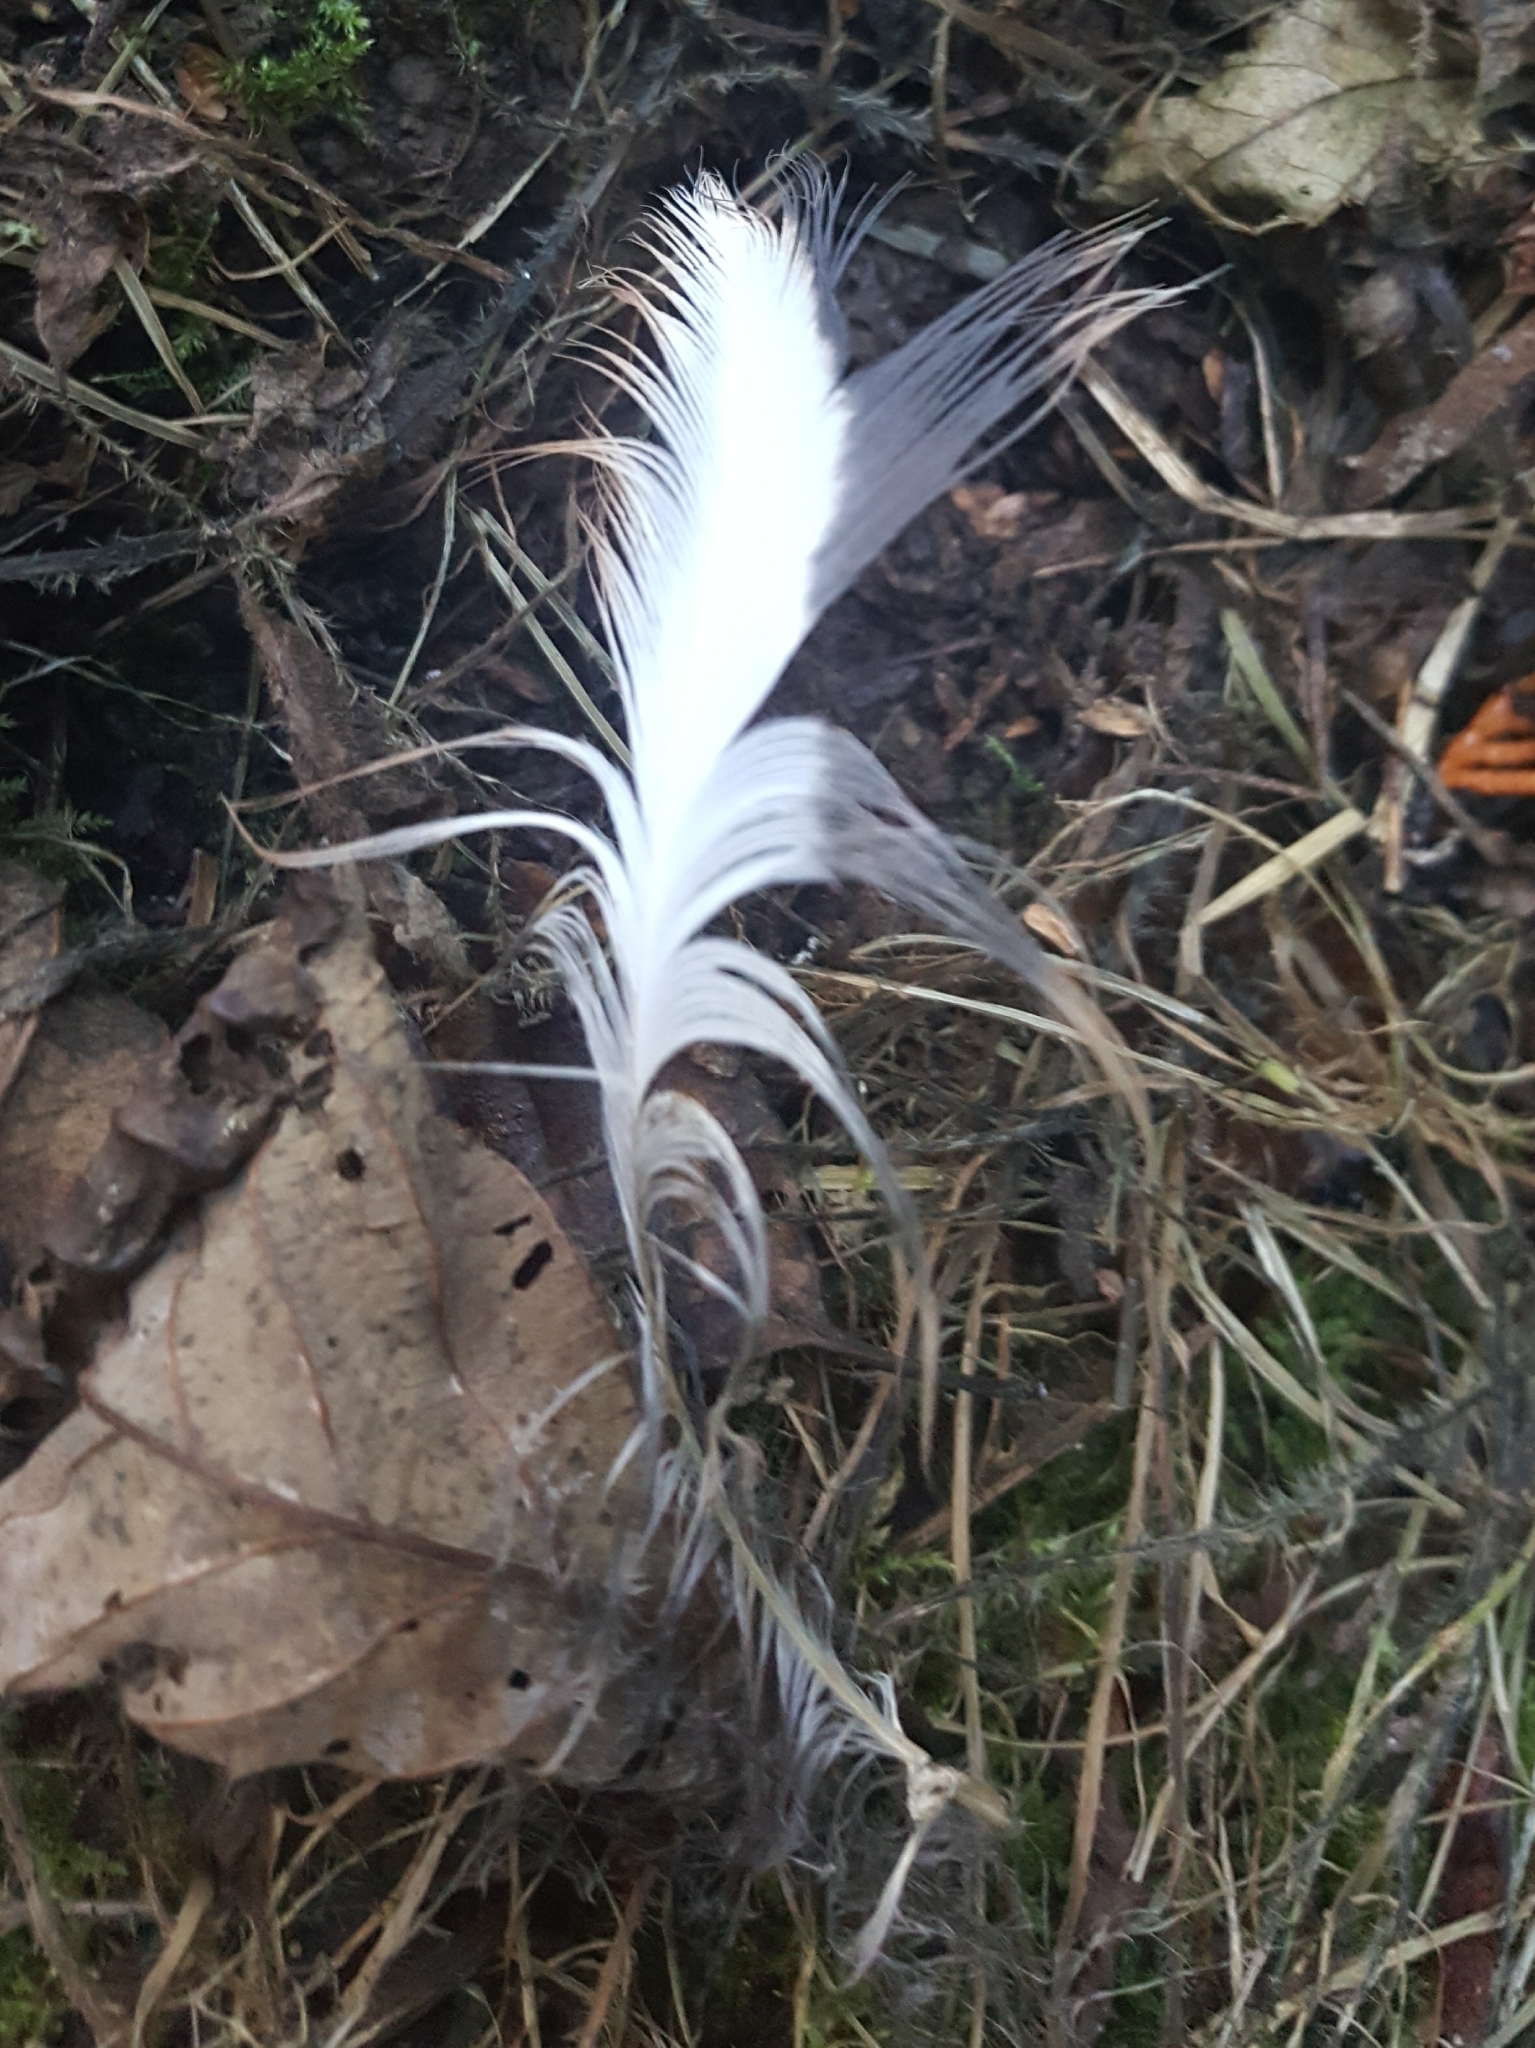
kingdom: Animalia
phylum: Chordata
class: Aves
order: Pelecaniformes
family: Ardeidae
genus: Ardea
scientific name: Ardea herodias
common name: Great blue heron
